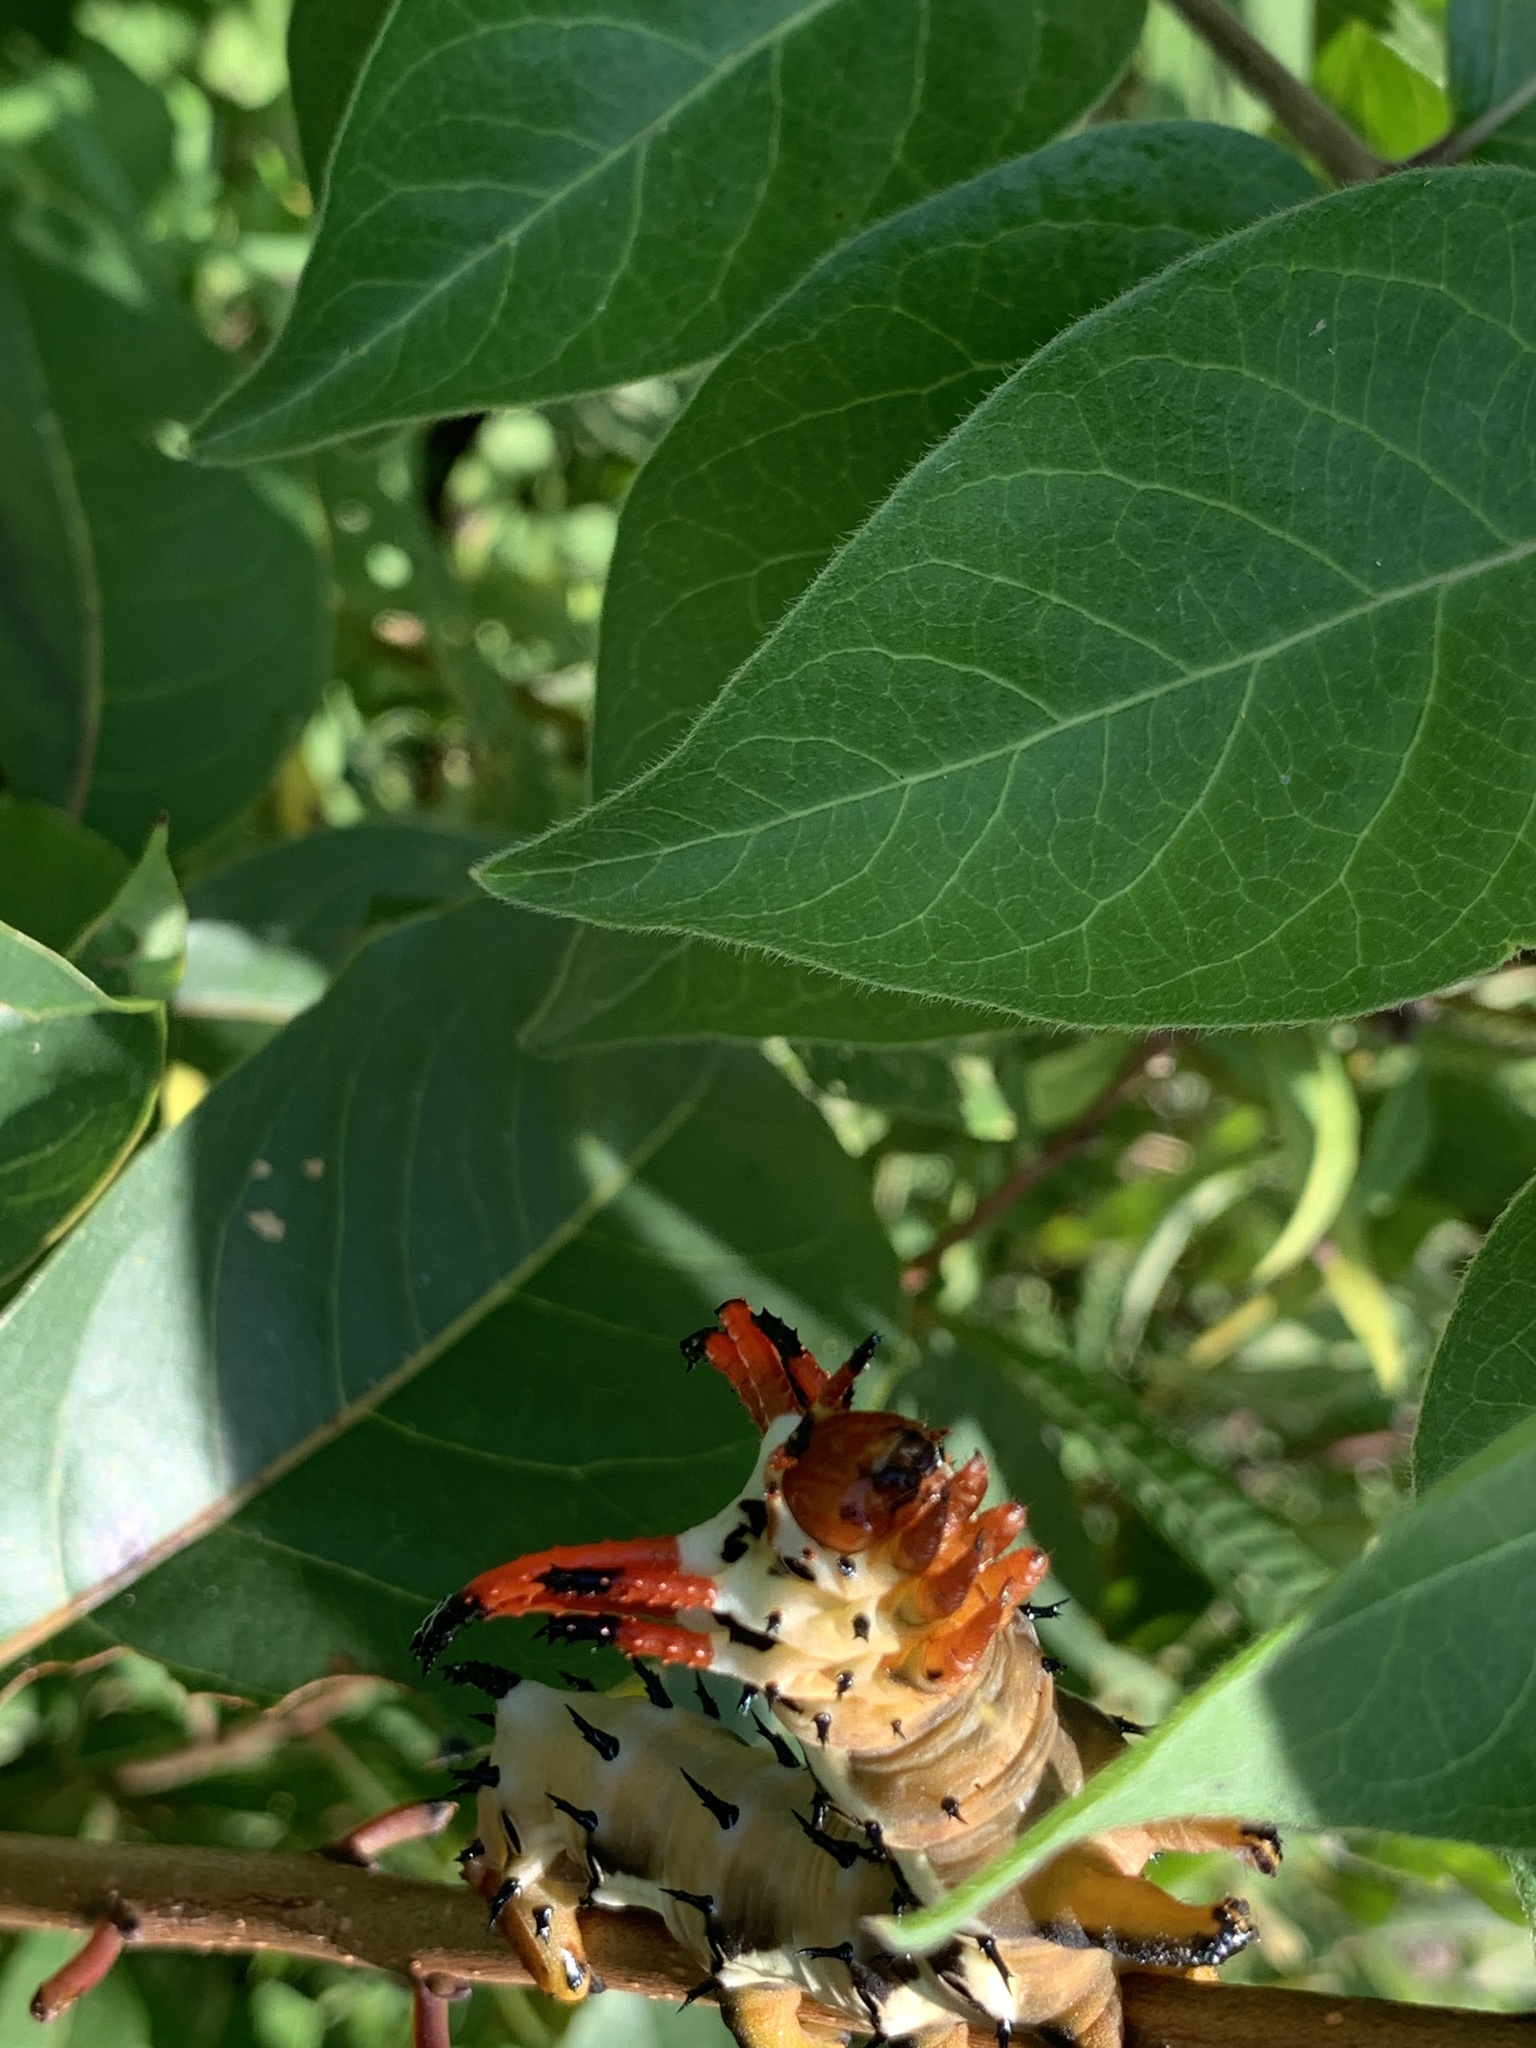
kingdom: Animalia
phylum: Arthropoda
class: Insecta
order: Lepidoptera
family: Saturniidae
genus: Citheronia
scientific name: Citheronia regalis
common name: Hickory horned devil
